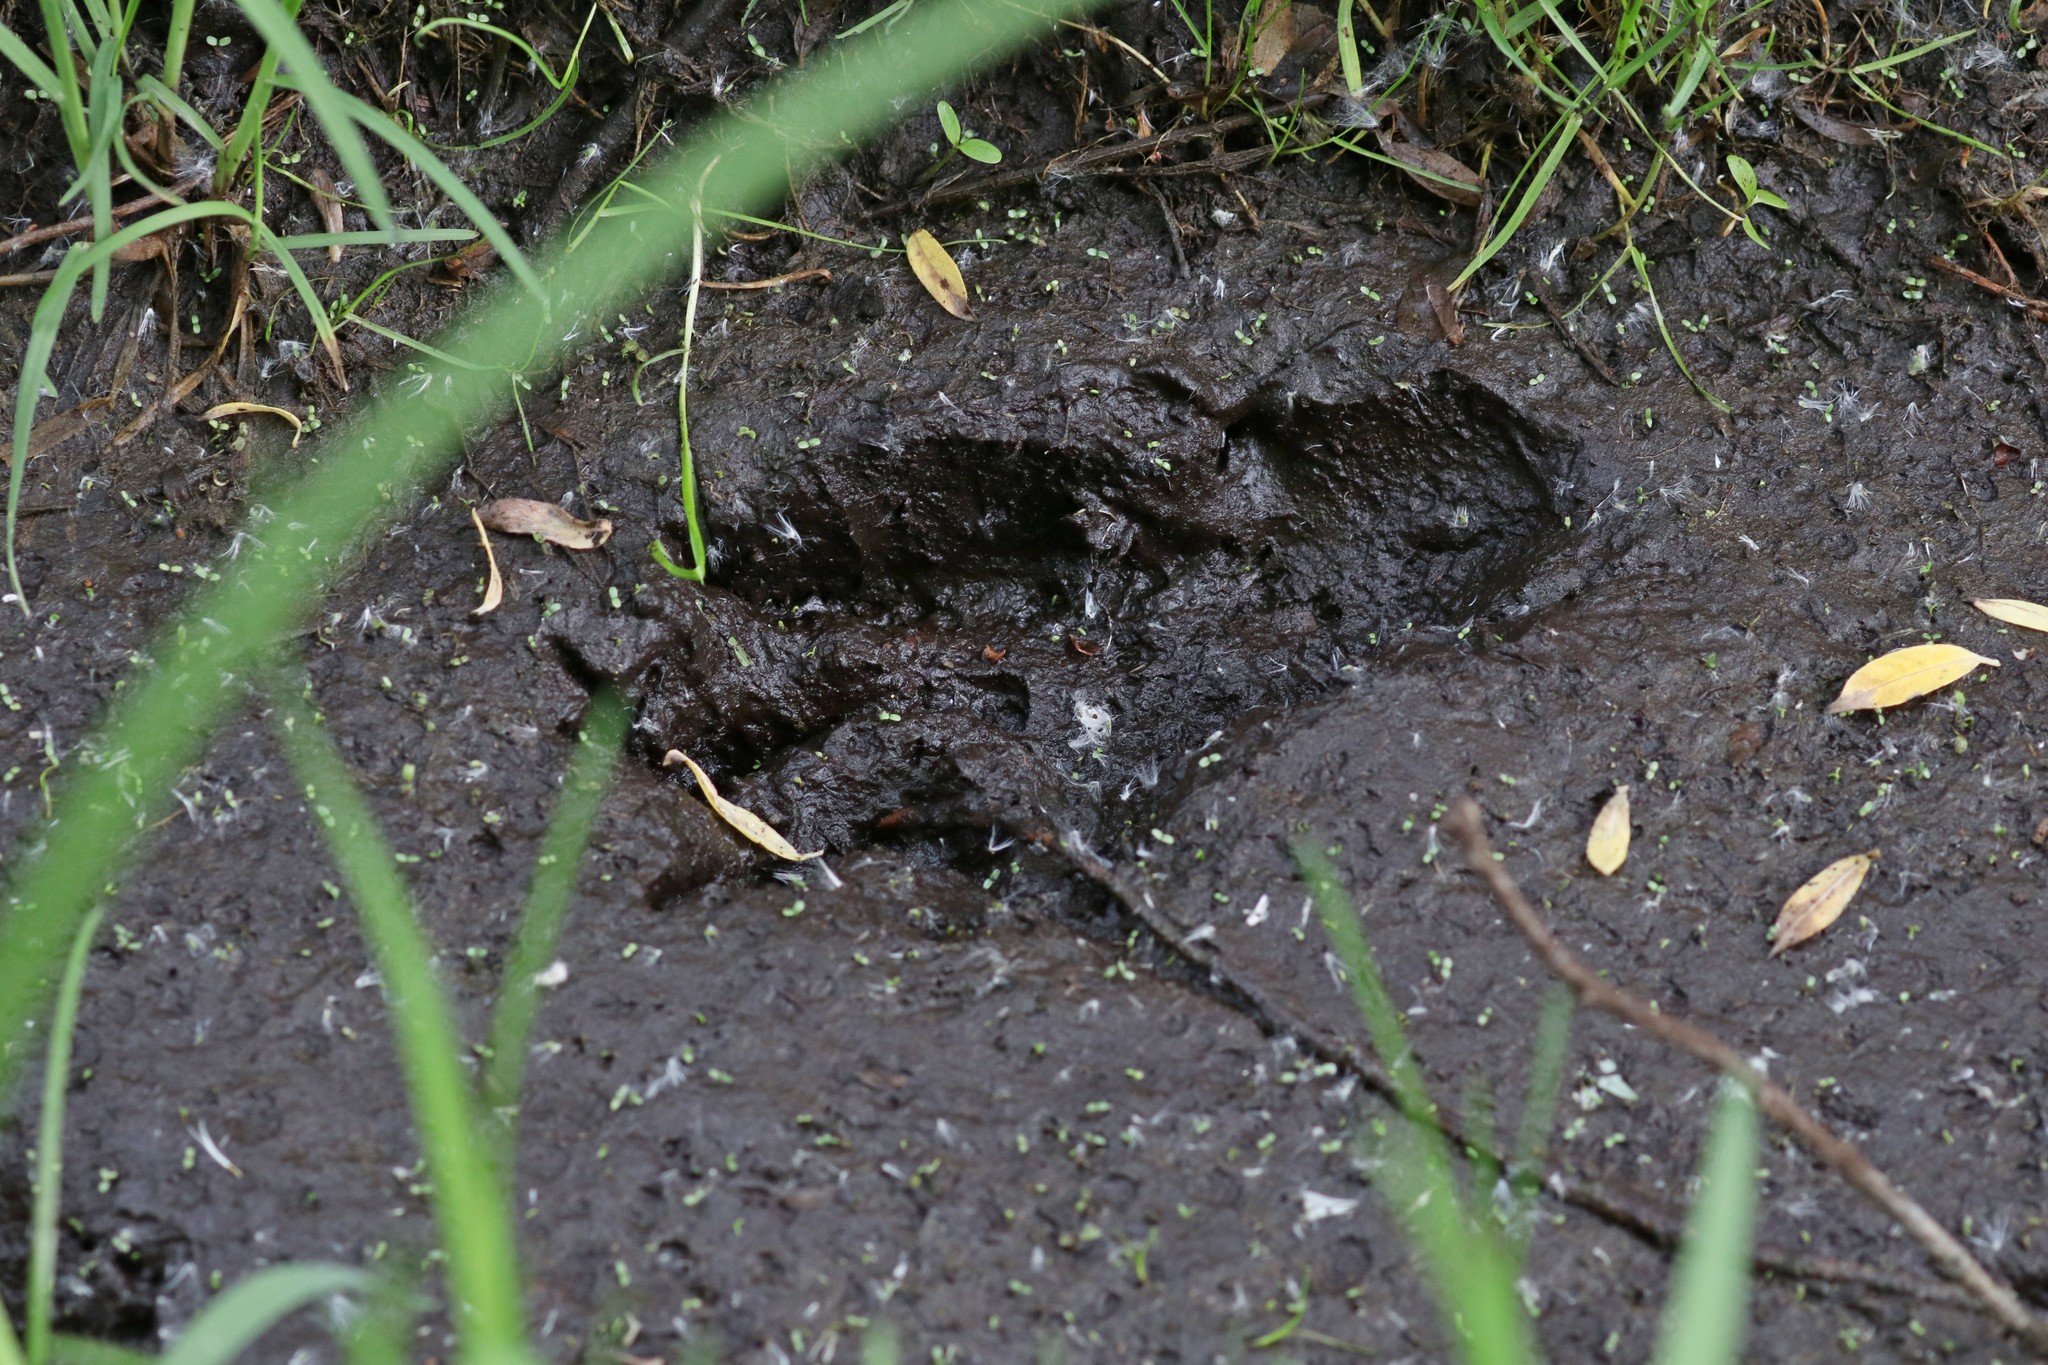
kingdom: Animalia
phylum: Chordata
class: Mammalia
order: Rodentia
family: Castoridae
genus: Castor
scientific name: Castor fiber
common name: Eurasian beaver
